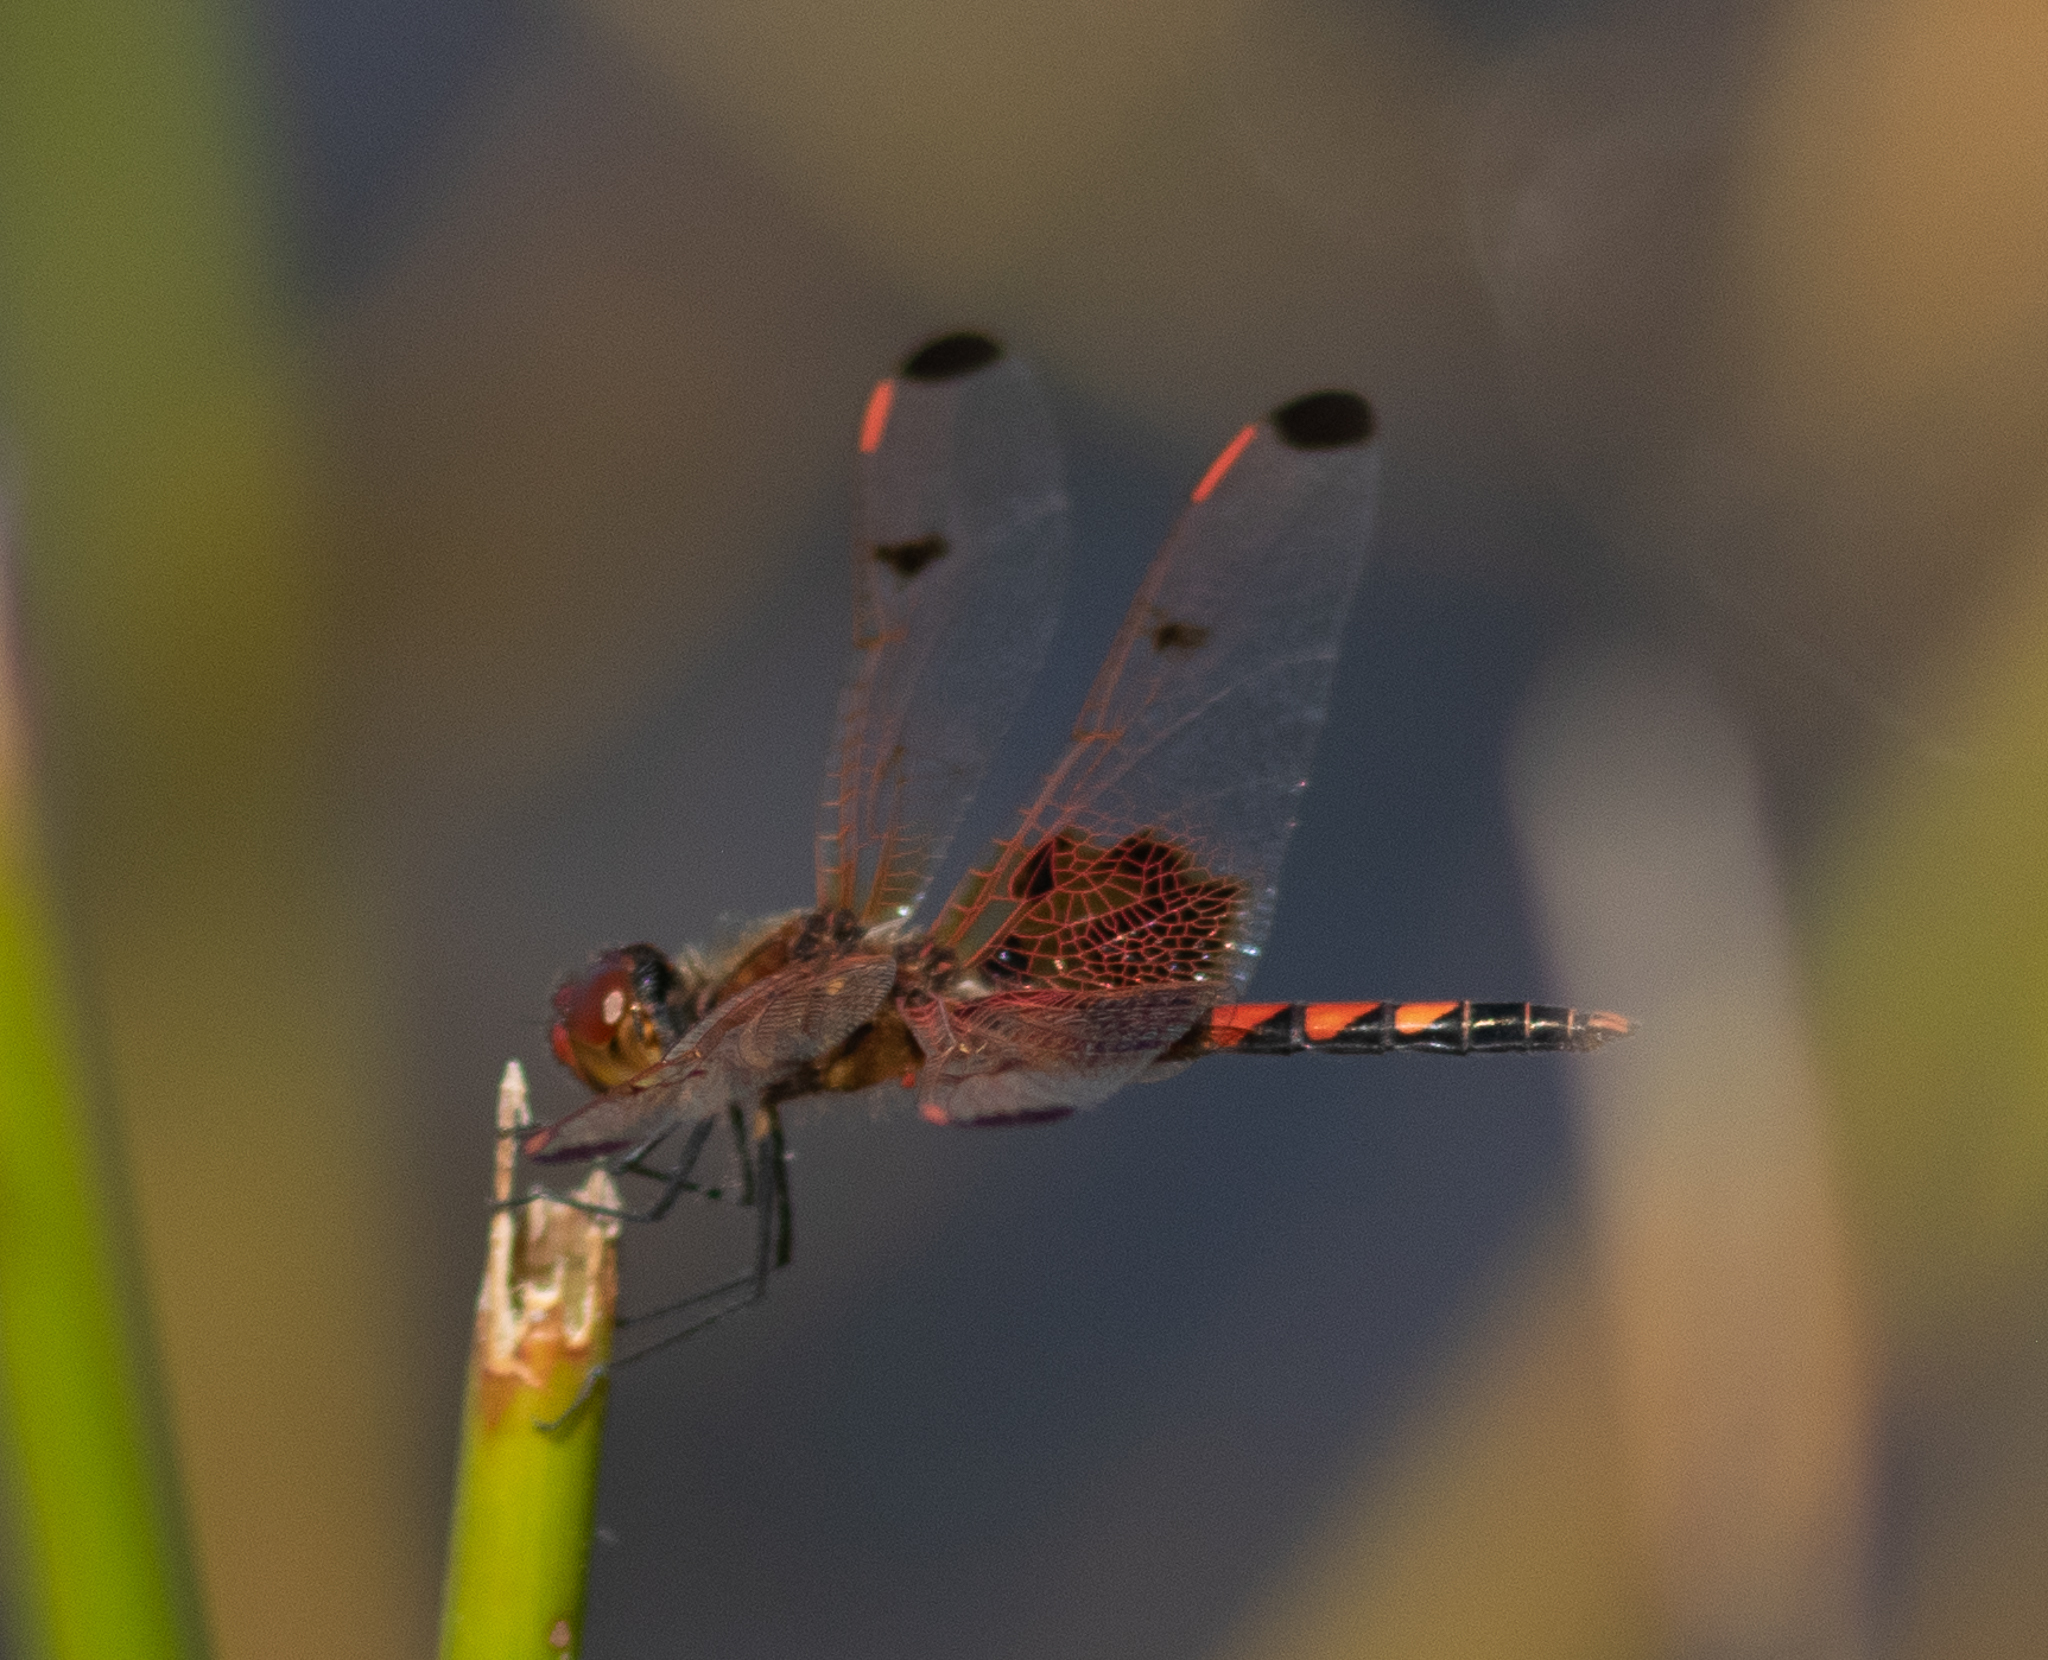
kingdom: Animalia
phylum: Arthropoda
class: Insecta
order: Odonata
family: Libellulidae
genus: Celithemis
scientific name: Celithemis elisa
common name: Calico pennant
